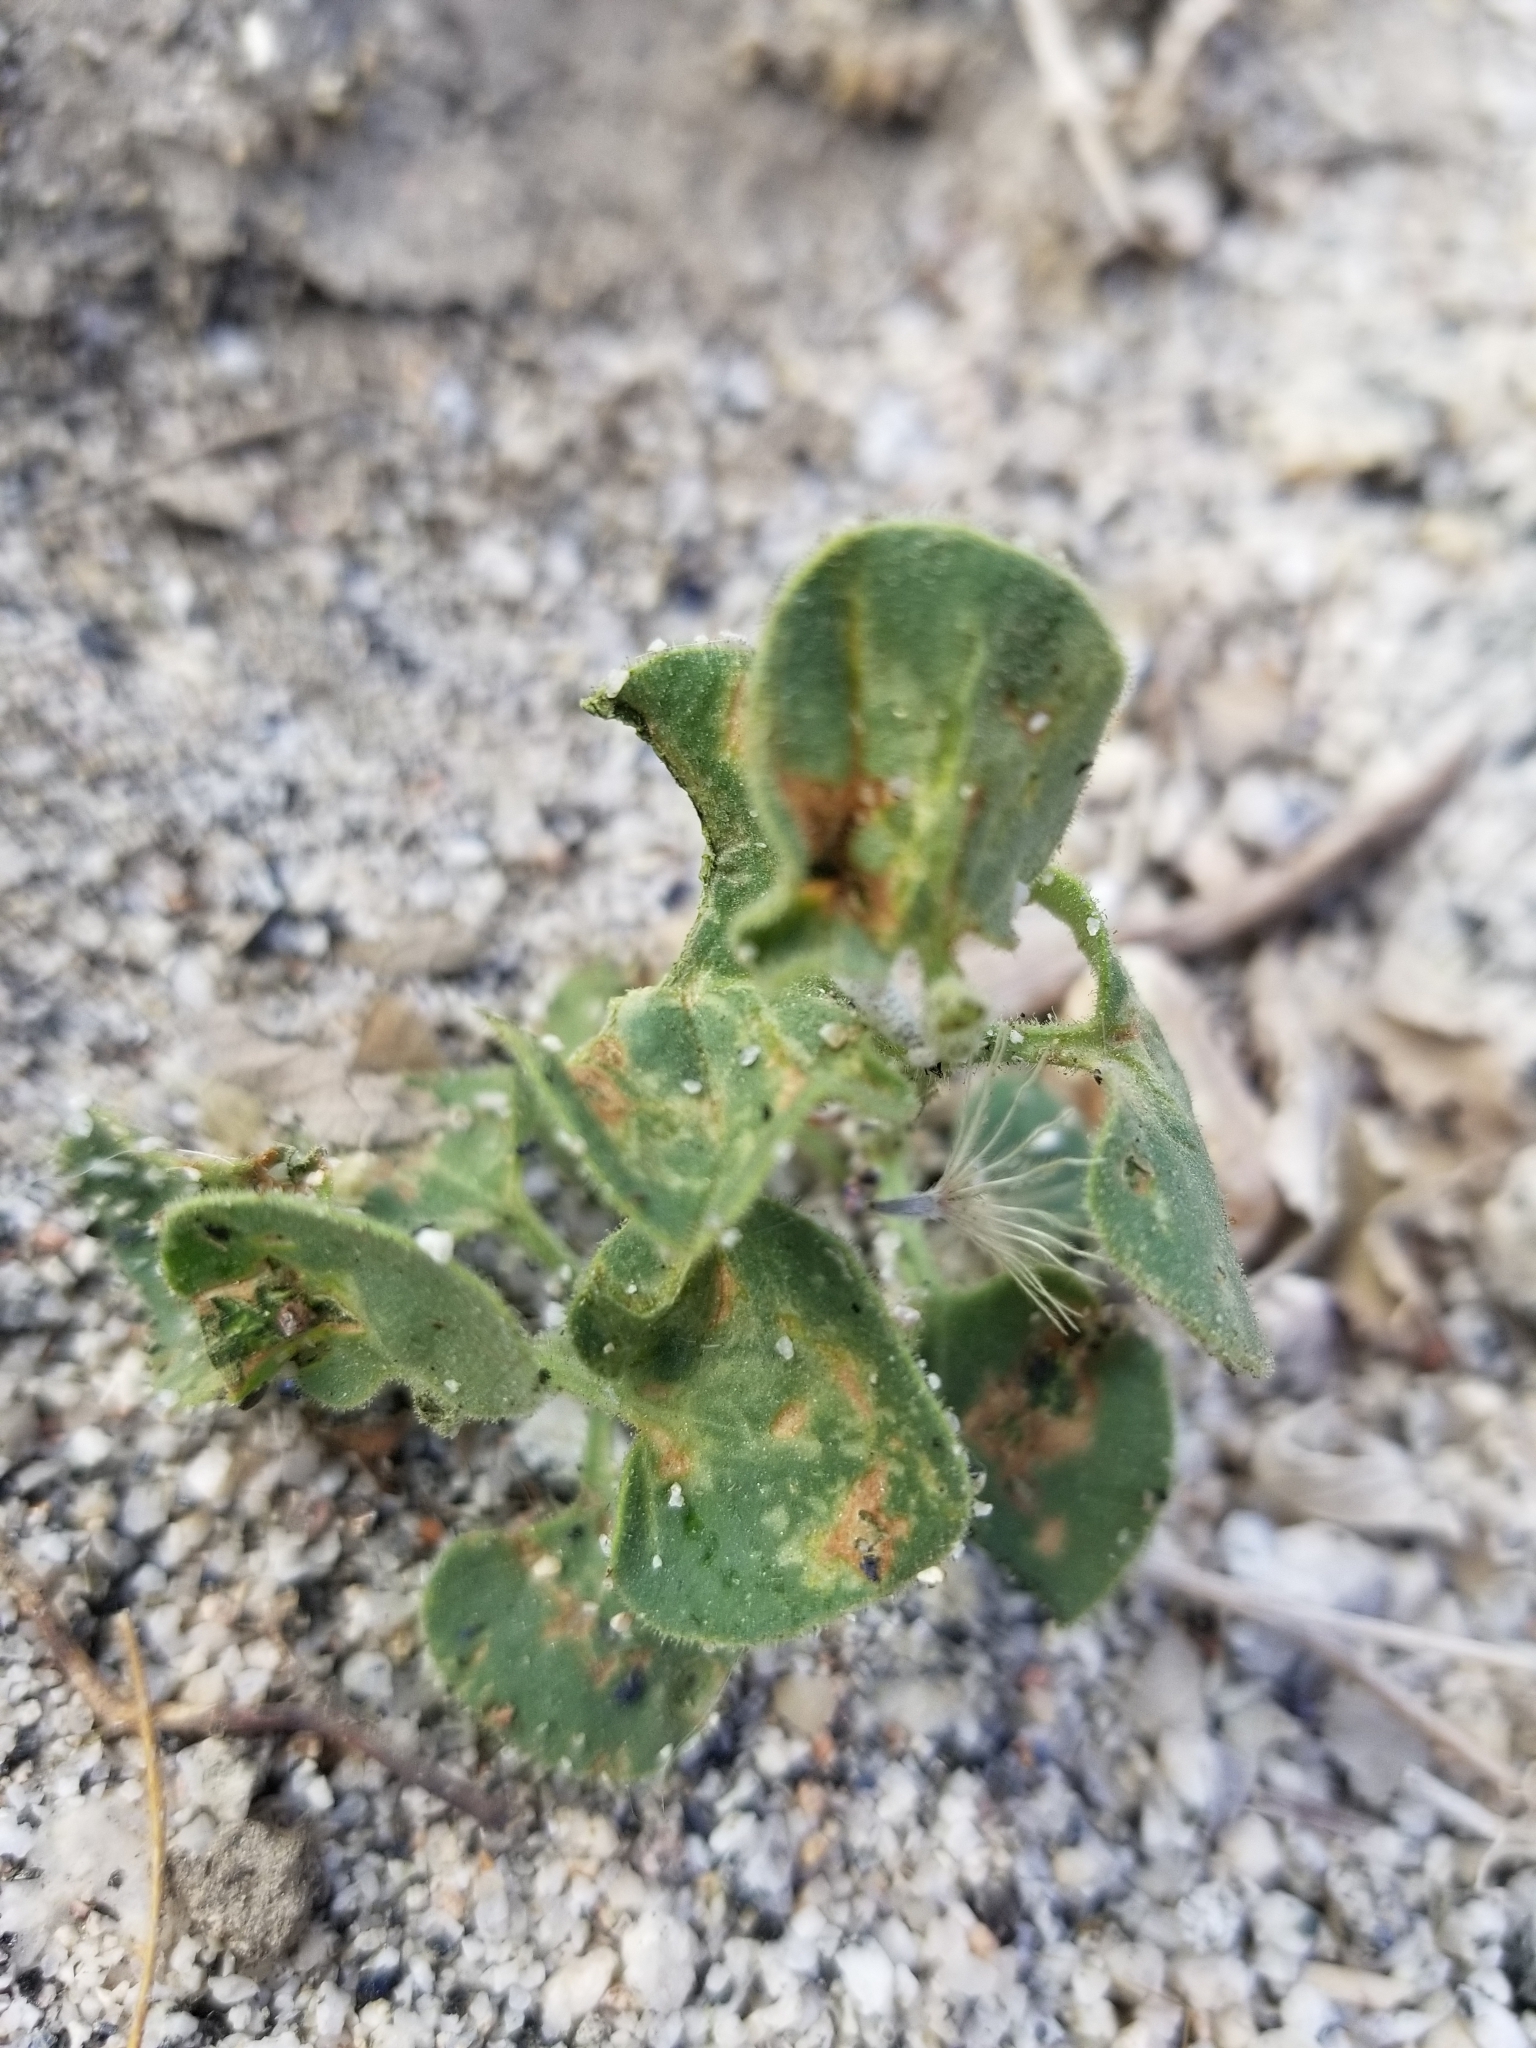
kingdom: Plantae
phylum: Tracheophyta
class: Magnoliopsida
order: Caryophyllales
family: Nyctaginaceae
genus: Mirabilis
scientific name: Mirabilis laevis
